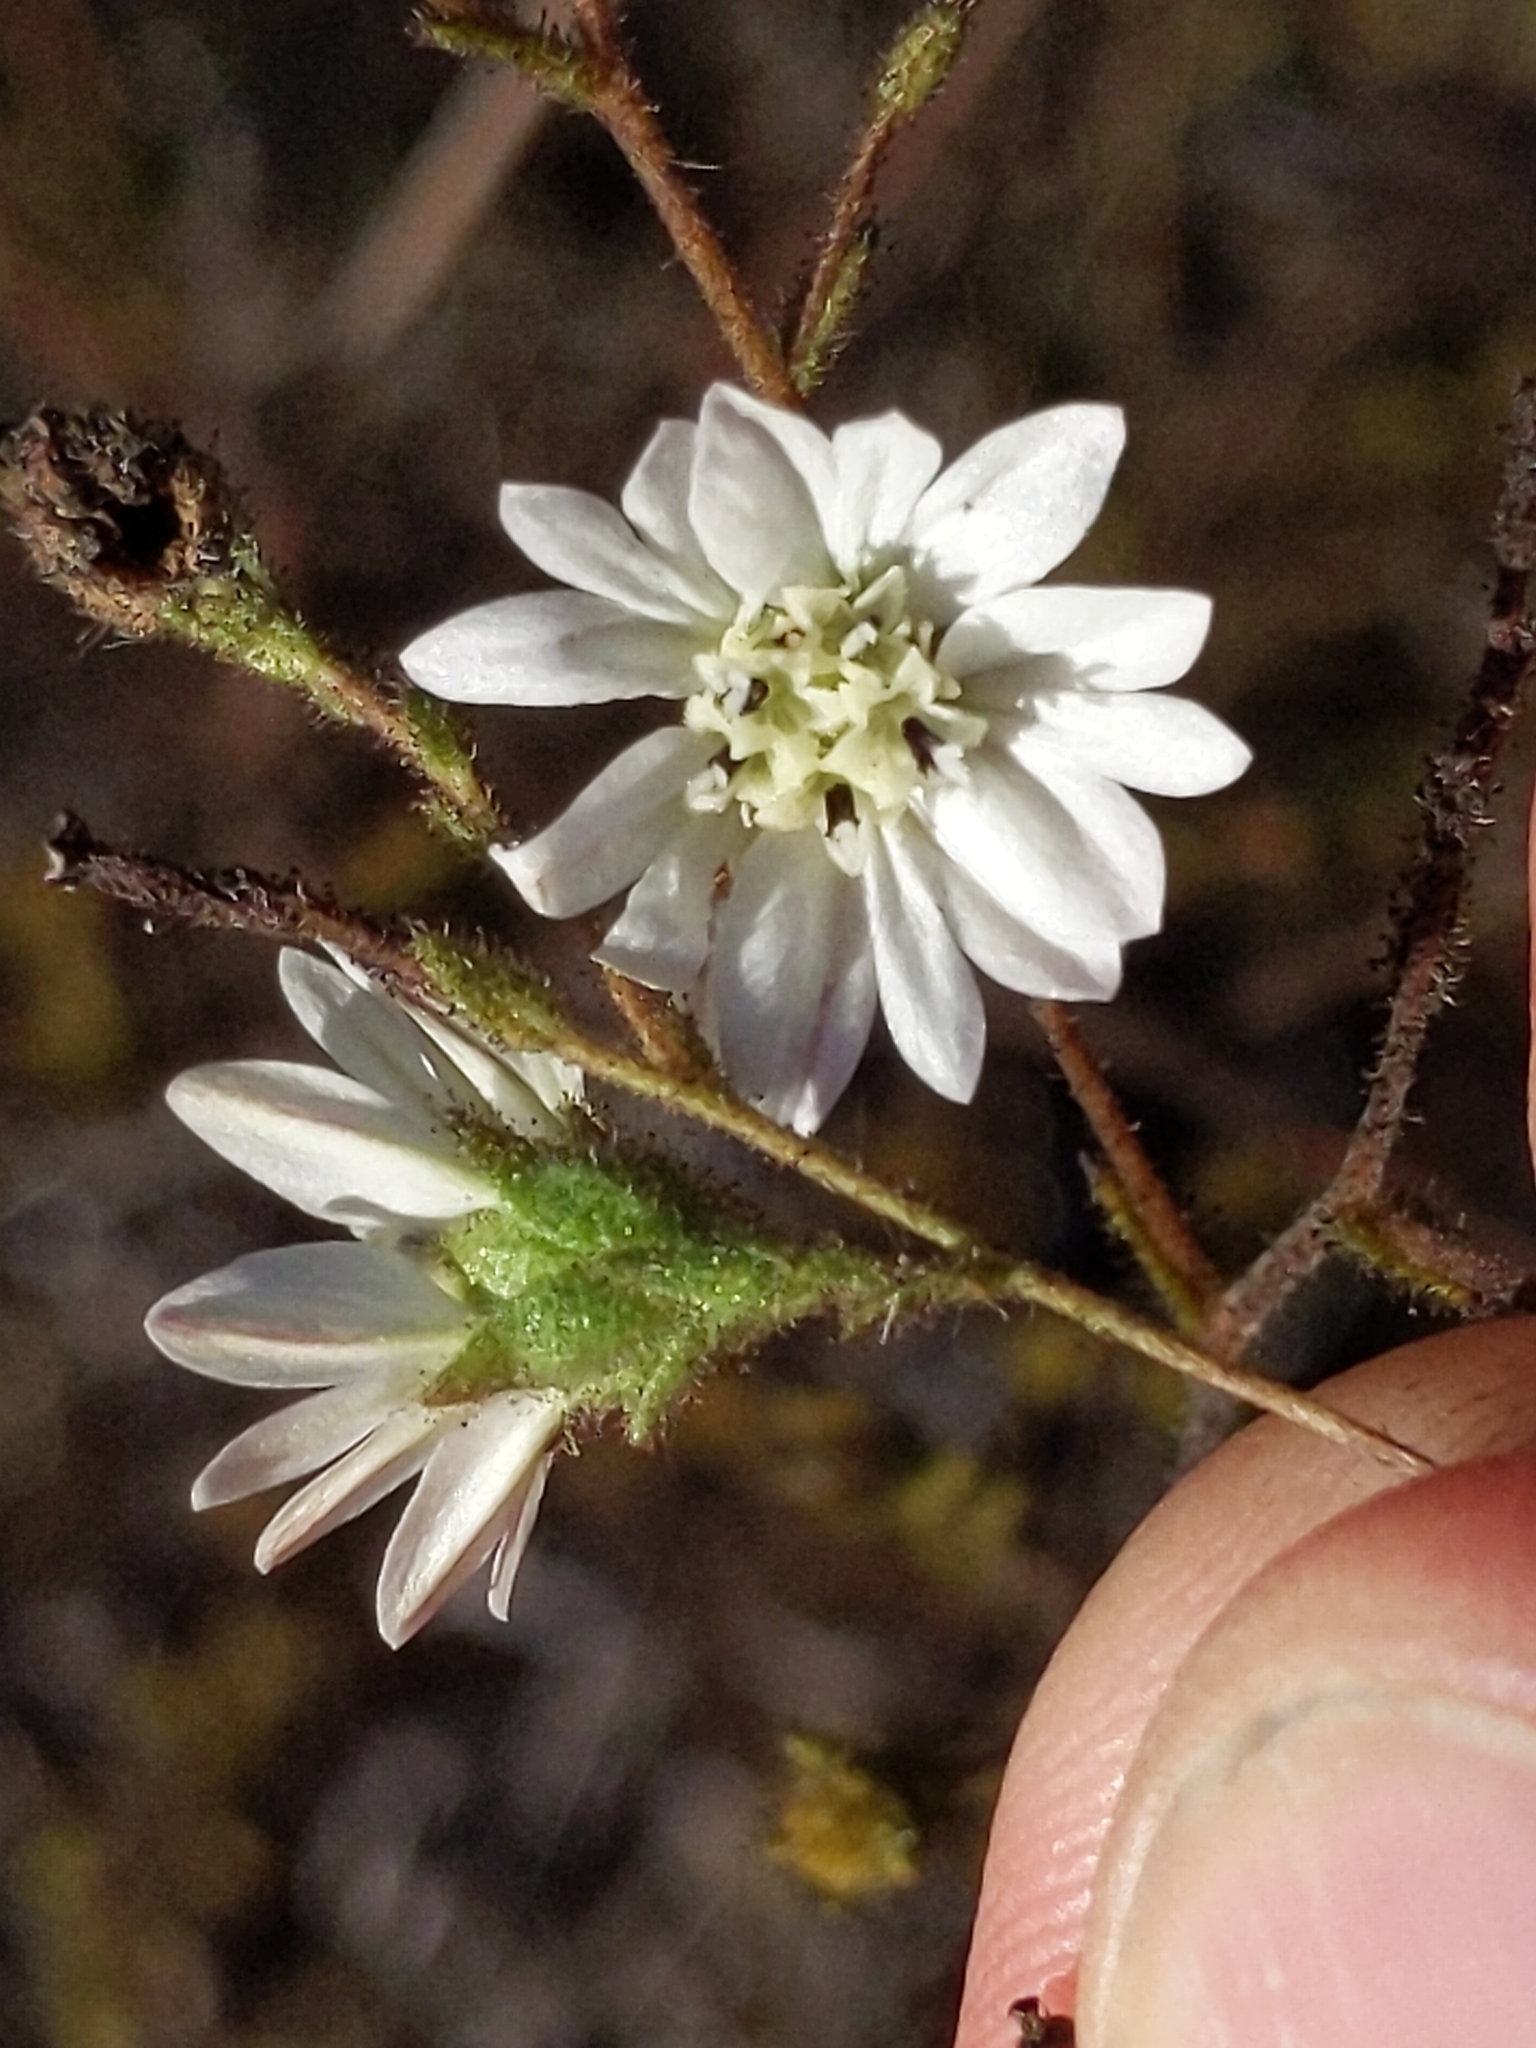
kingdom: Plantae
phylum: Tracheophyta
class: Magnoliopsida
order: Asterales
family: Asteraceae
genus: Hemizonia
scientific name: Hemizonia congesta
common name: Hayfield tarweed
